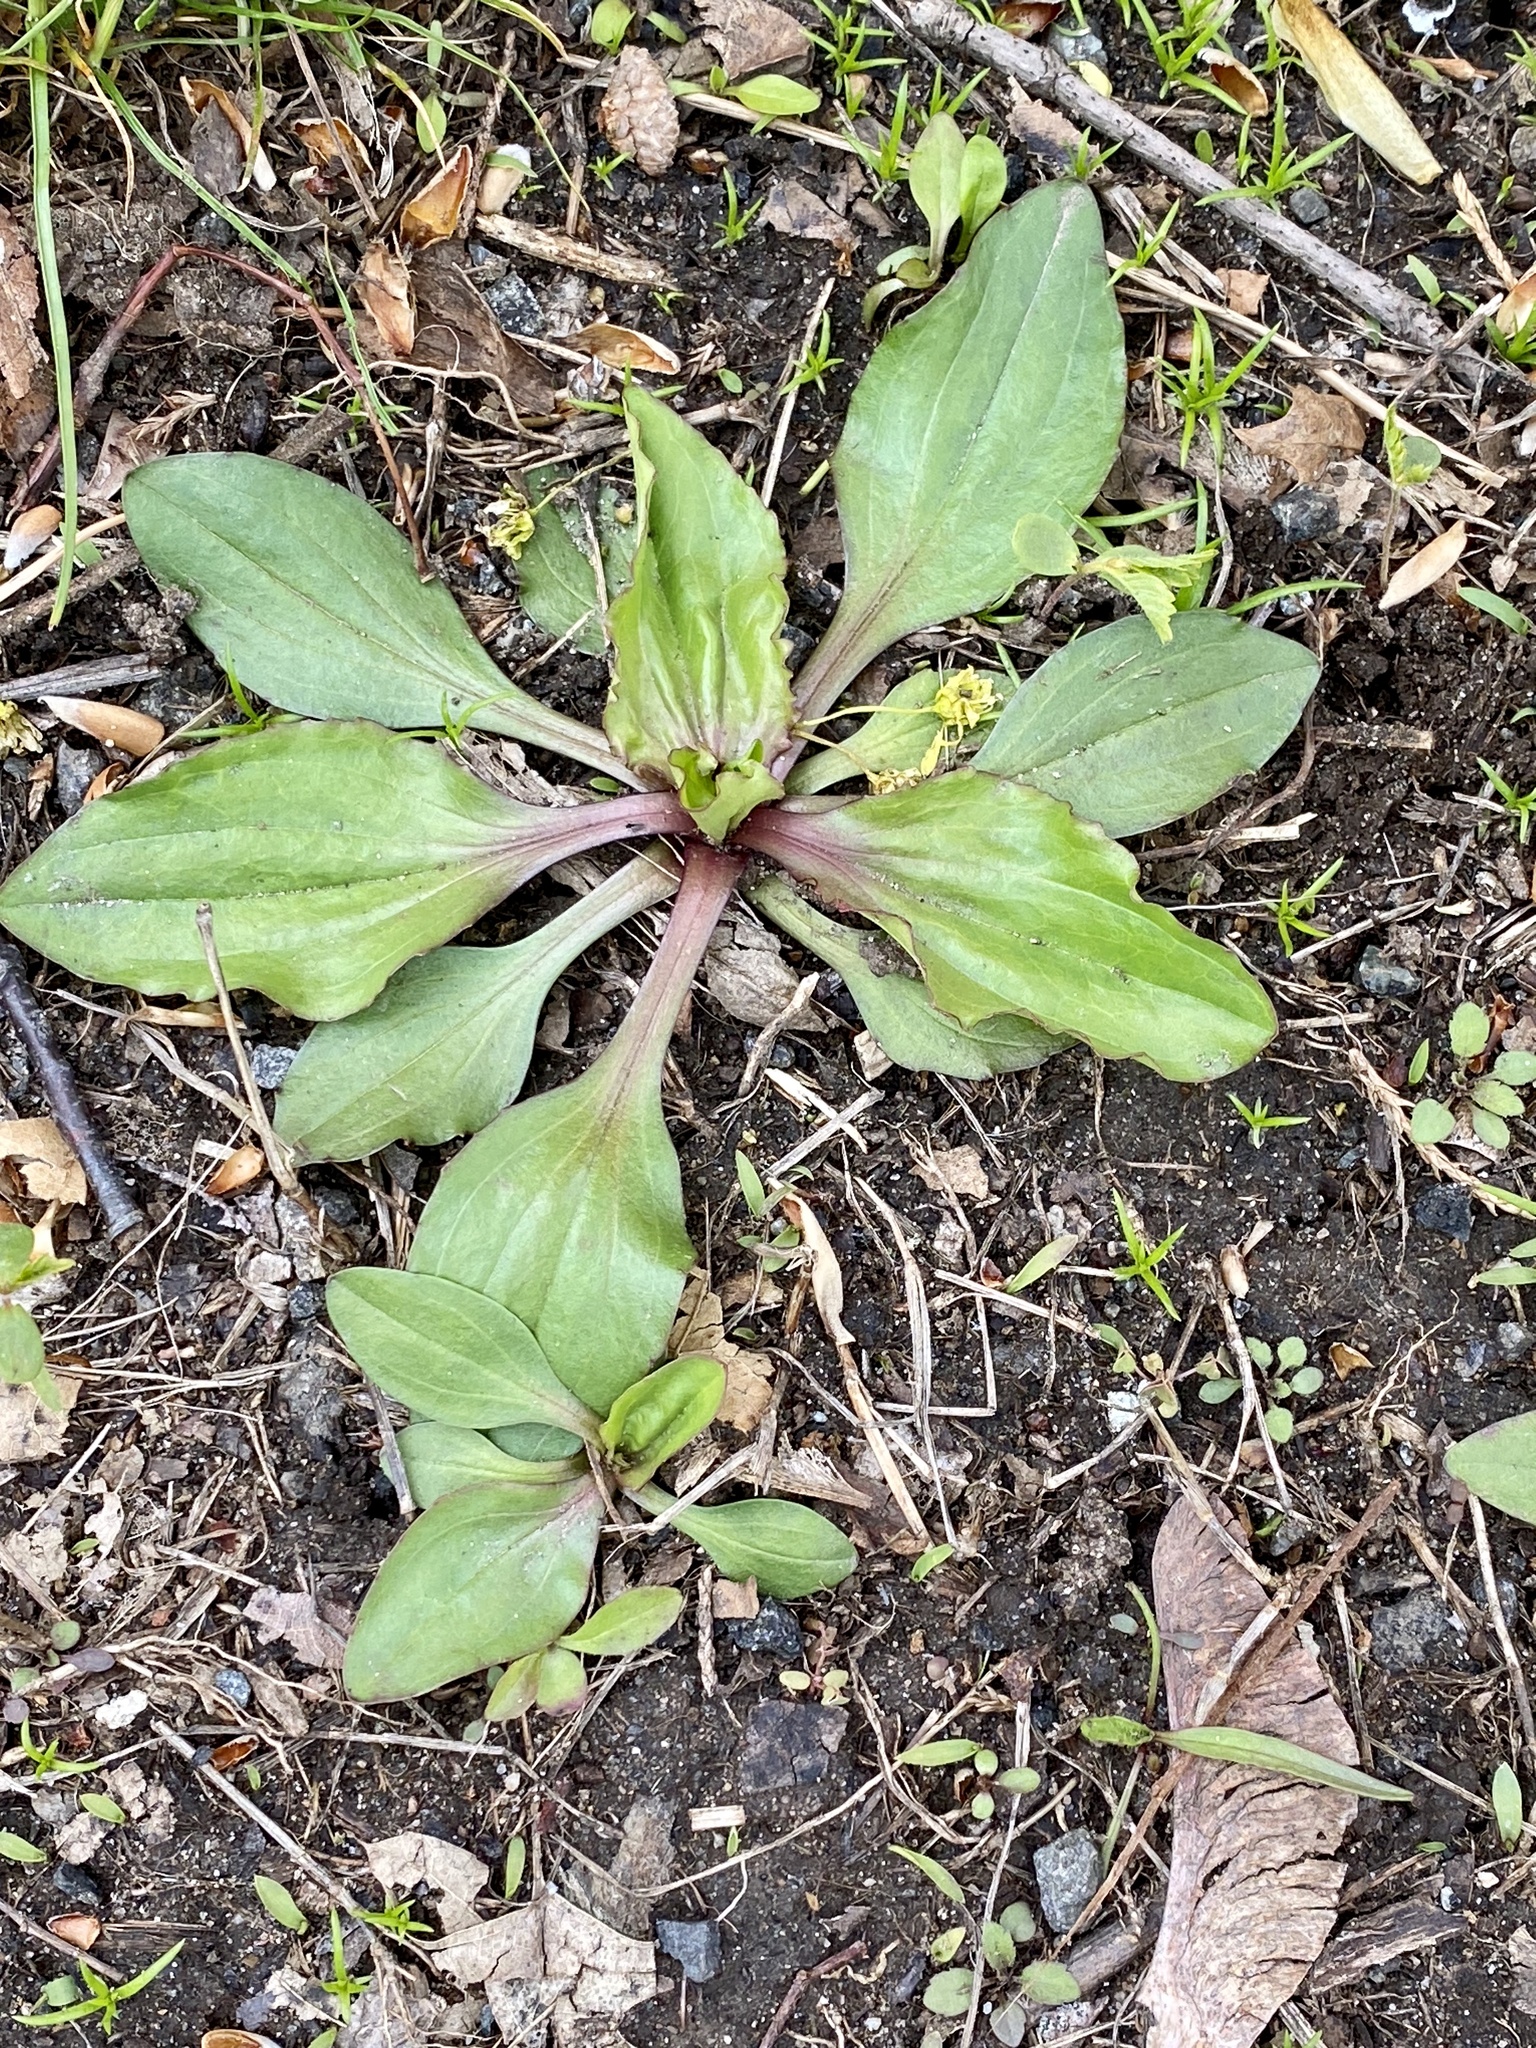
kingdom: Plantae
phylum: Tracheophyta
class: Magnoliopsida
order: Lamiales
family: Plantaginaceae
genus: Plantago
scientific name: Plantago rugelii
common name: American plantain
